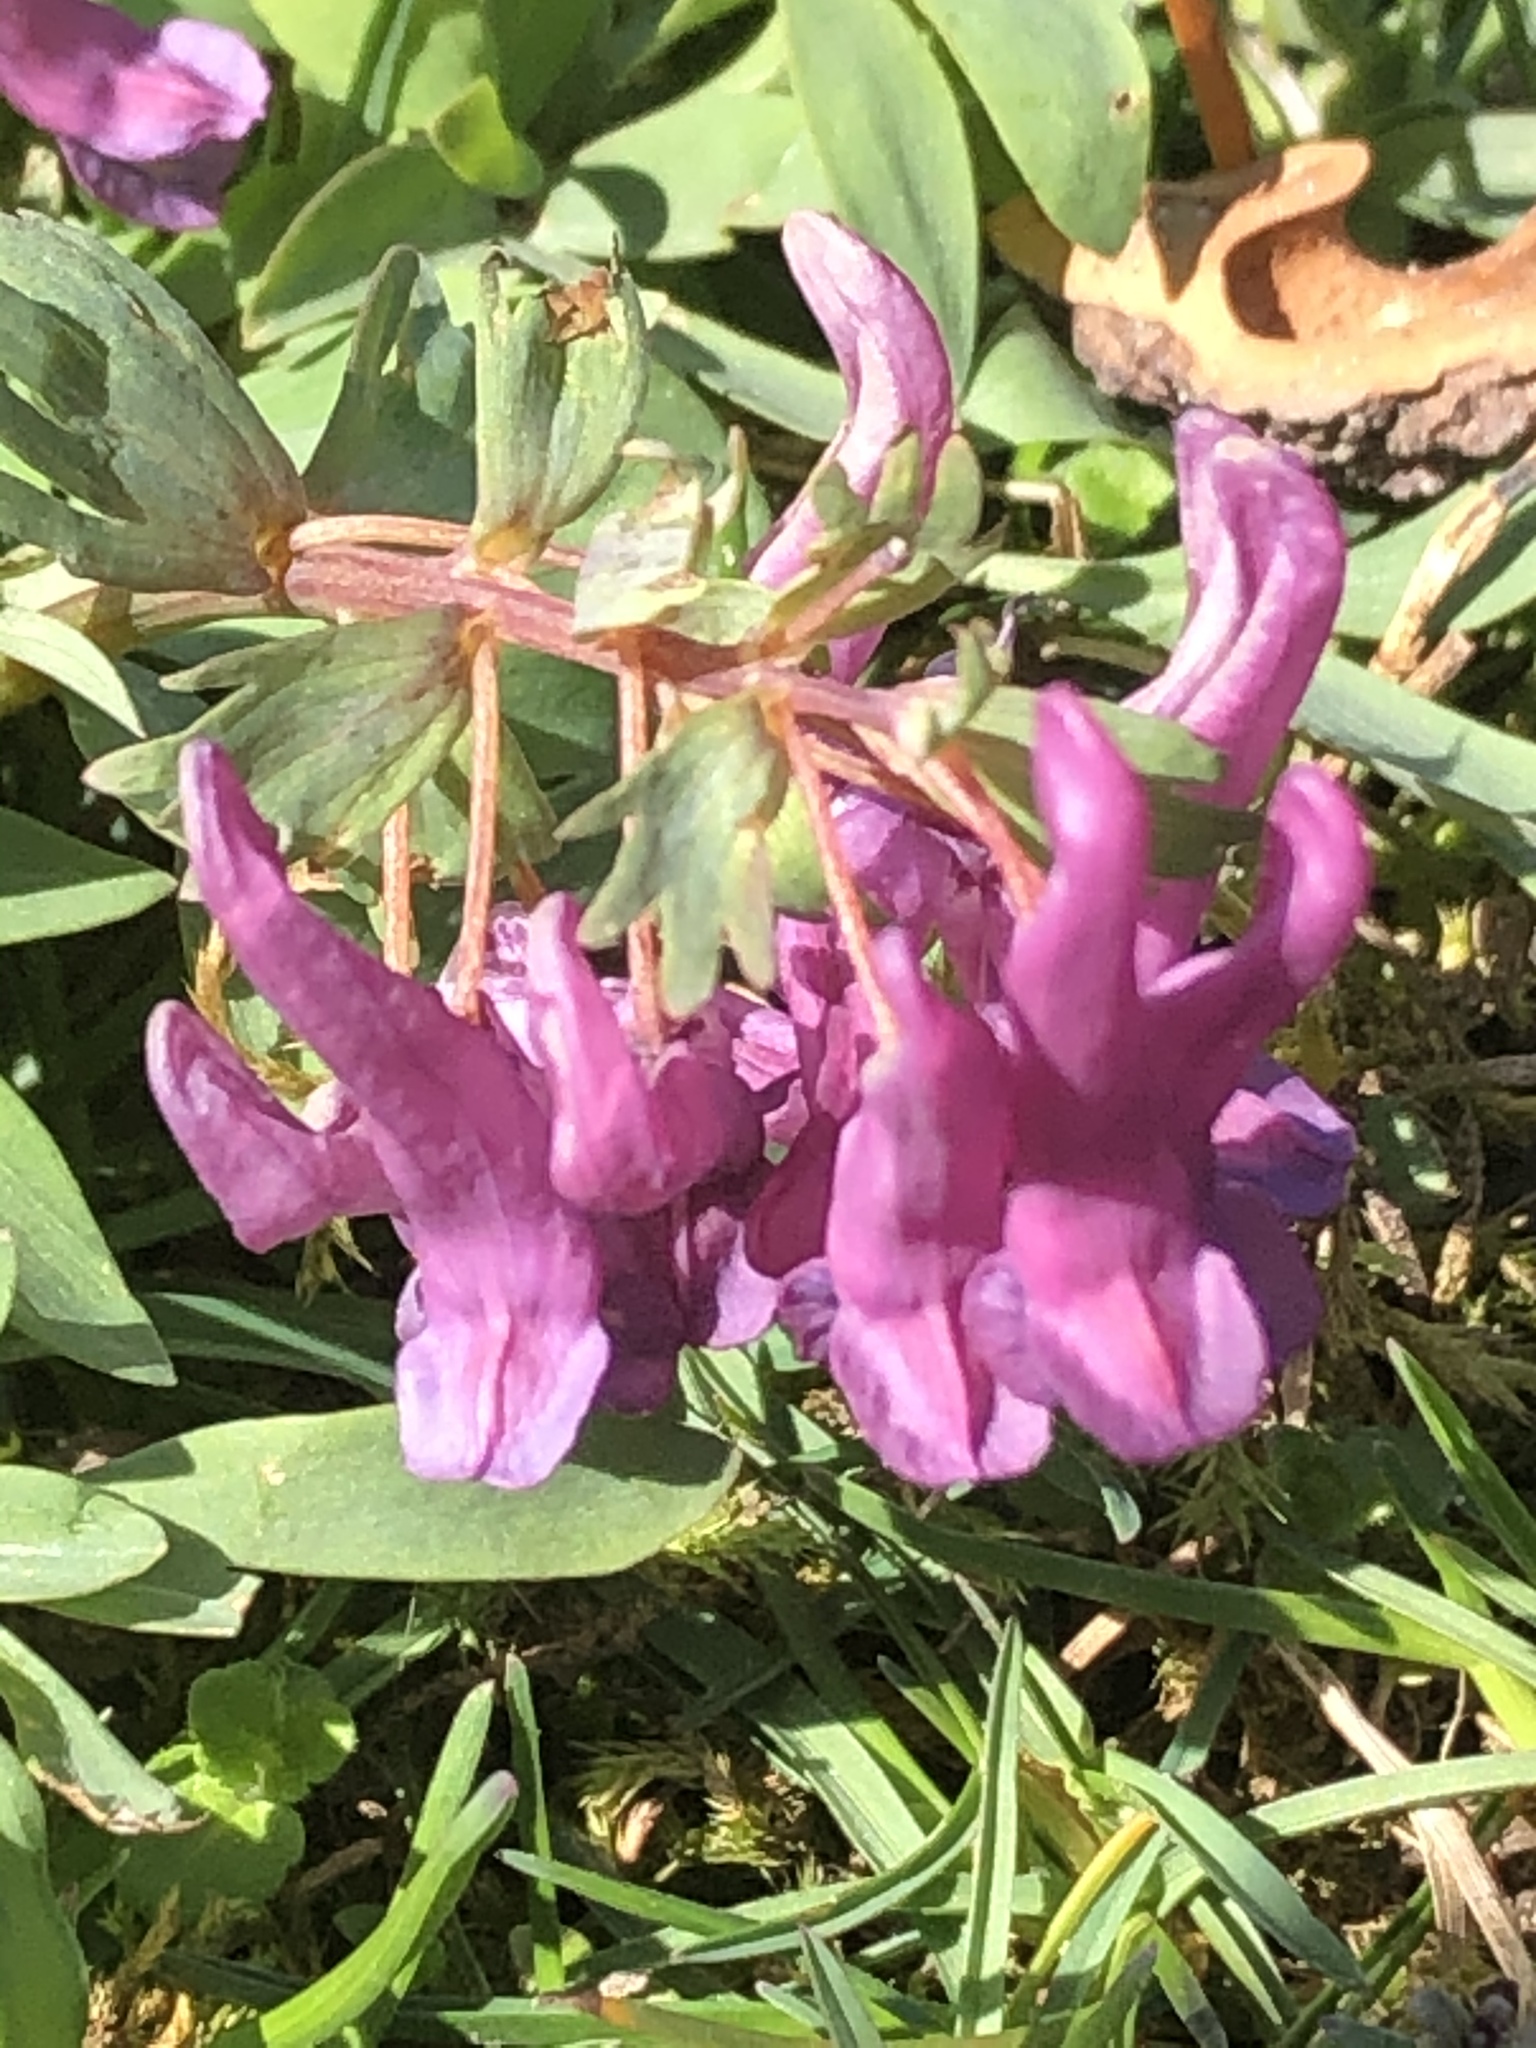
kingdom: Plantae
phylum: Tracheophyta
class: Magnoliopsida
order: Ranunculales
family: Papaveraceae
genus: Corydalis
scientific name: Corydalis solida
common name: Bird-in-a-bush
